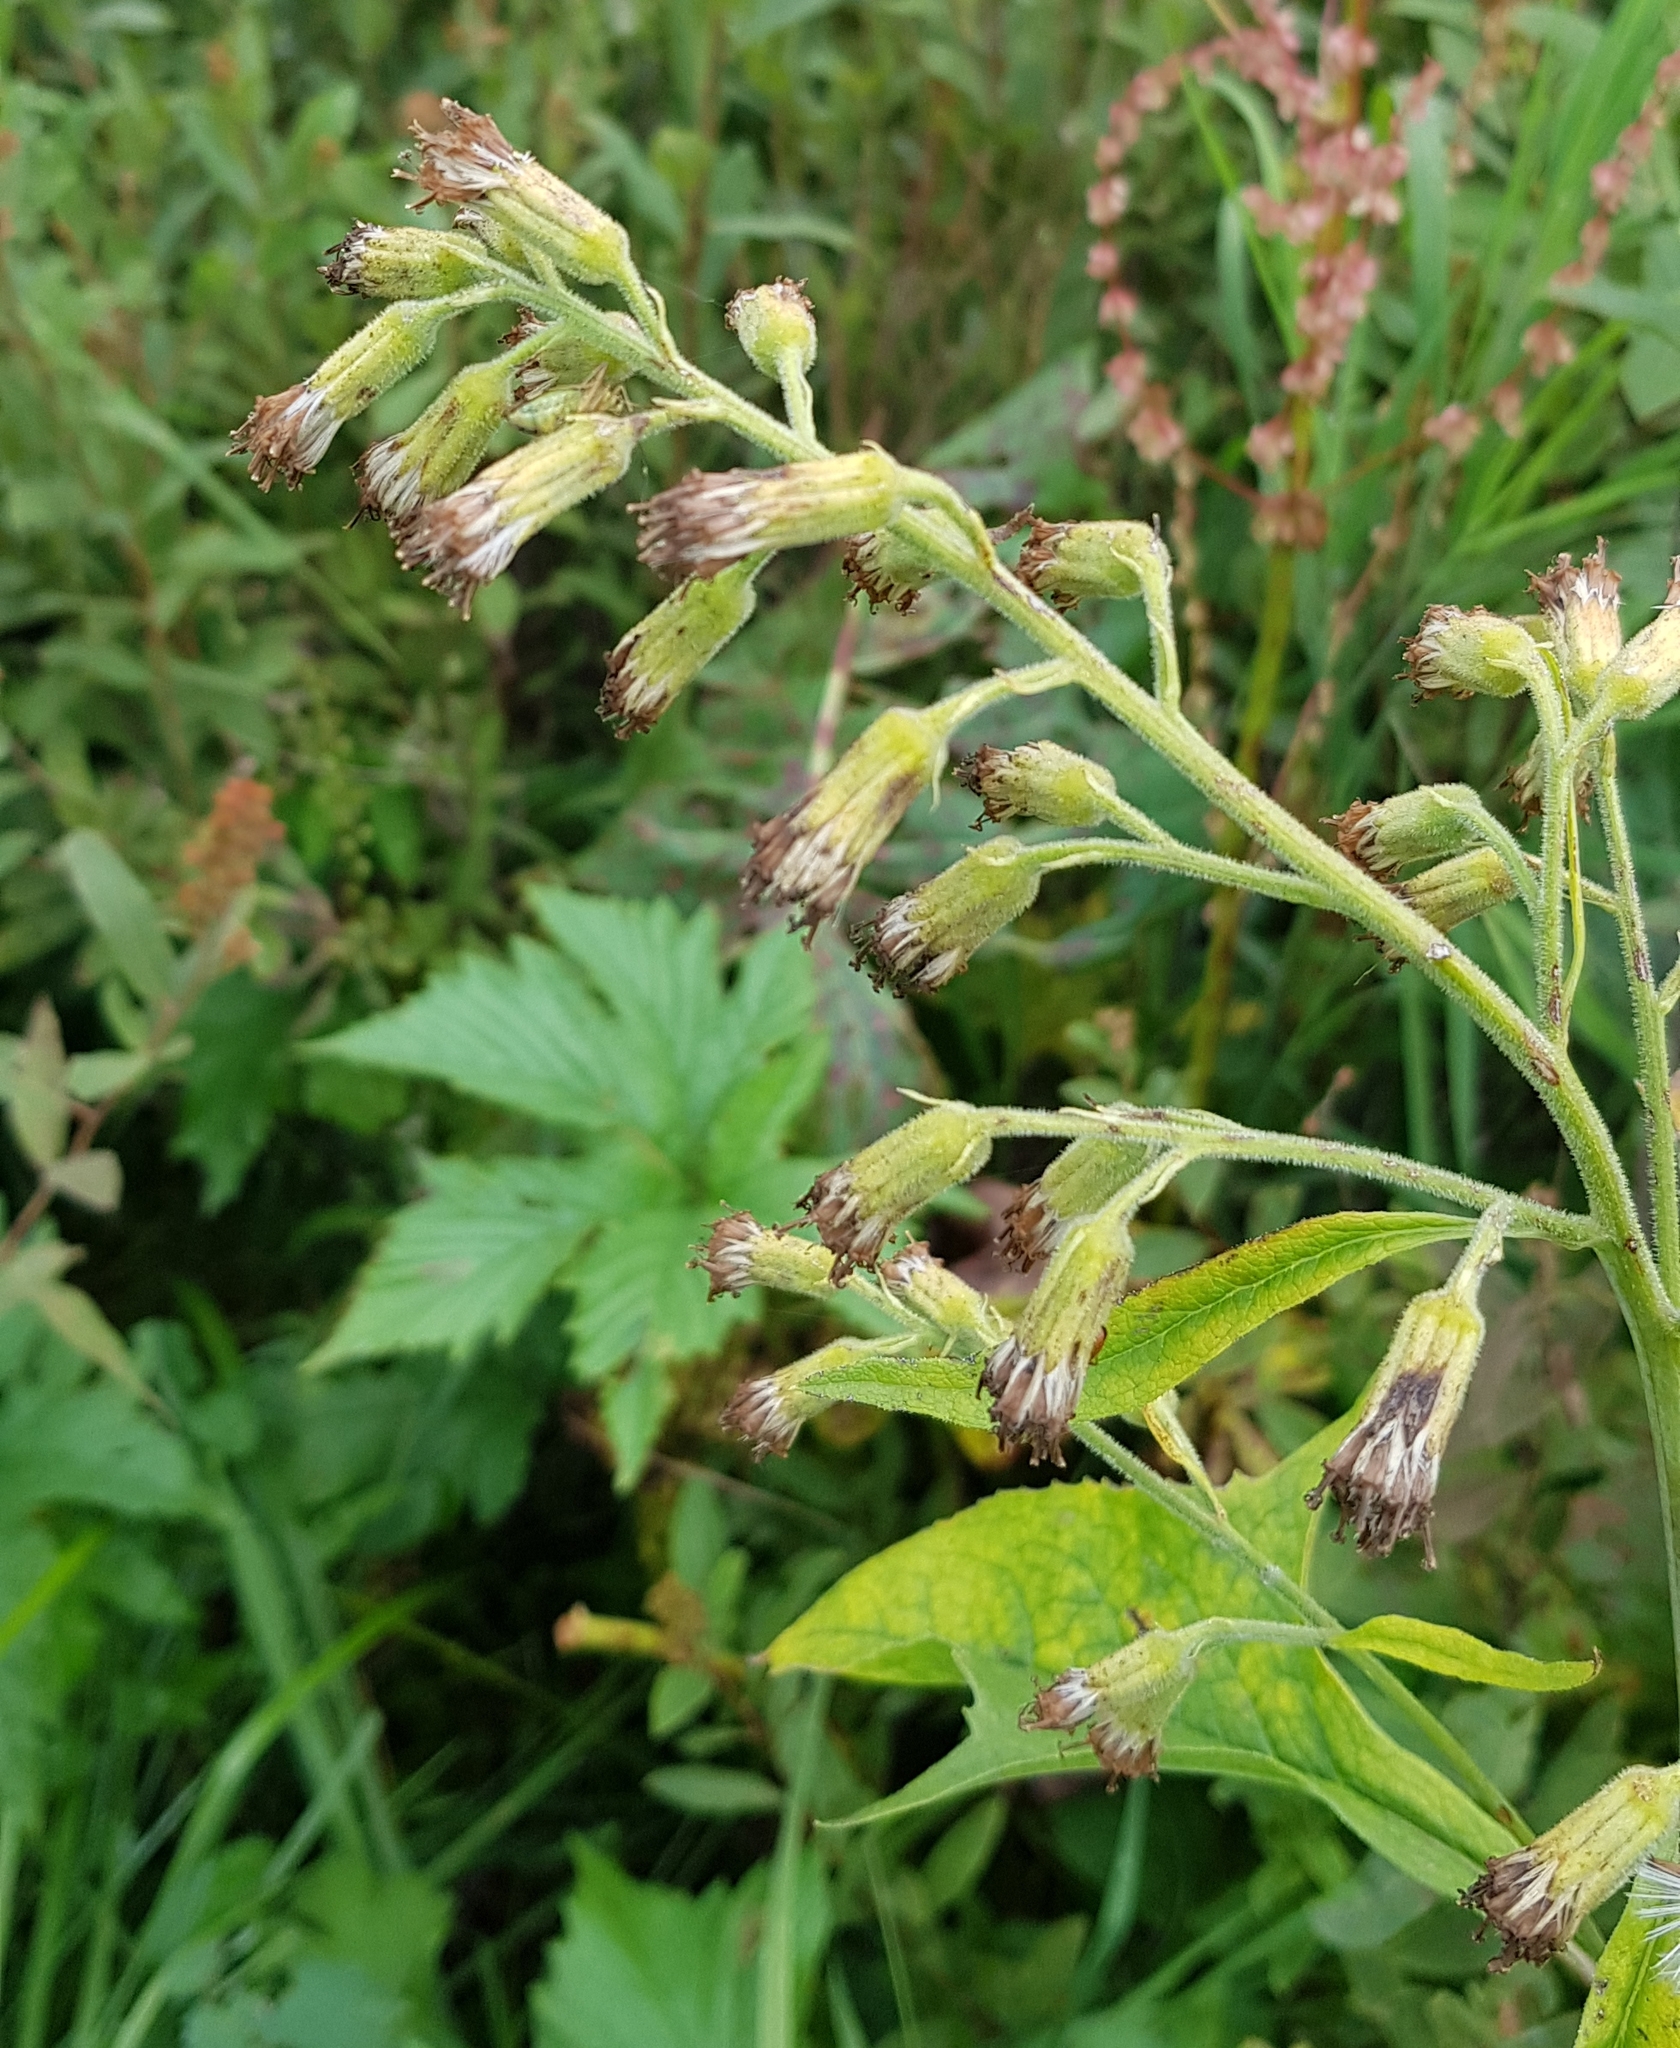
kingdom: Plantae
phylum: Tracheophyta
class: Magnoliopsida
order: Asterales
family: Asteraceae
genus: Parasenecio
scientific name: Parasenecio hastatus
